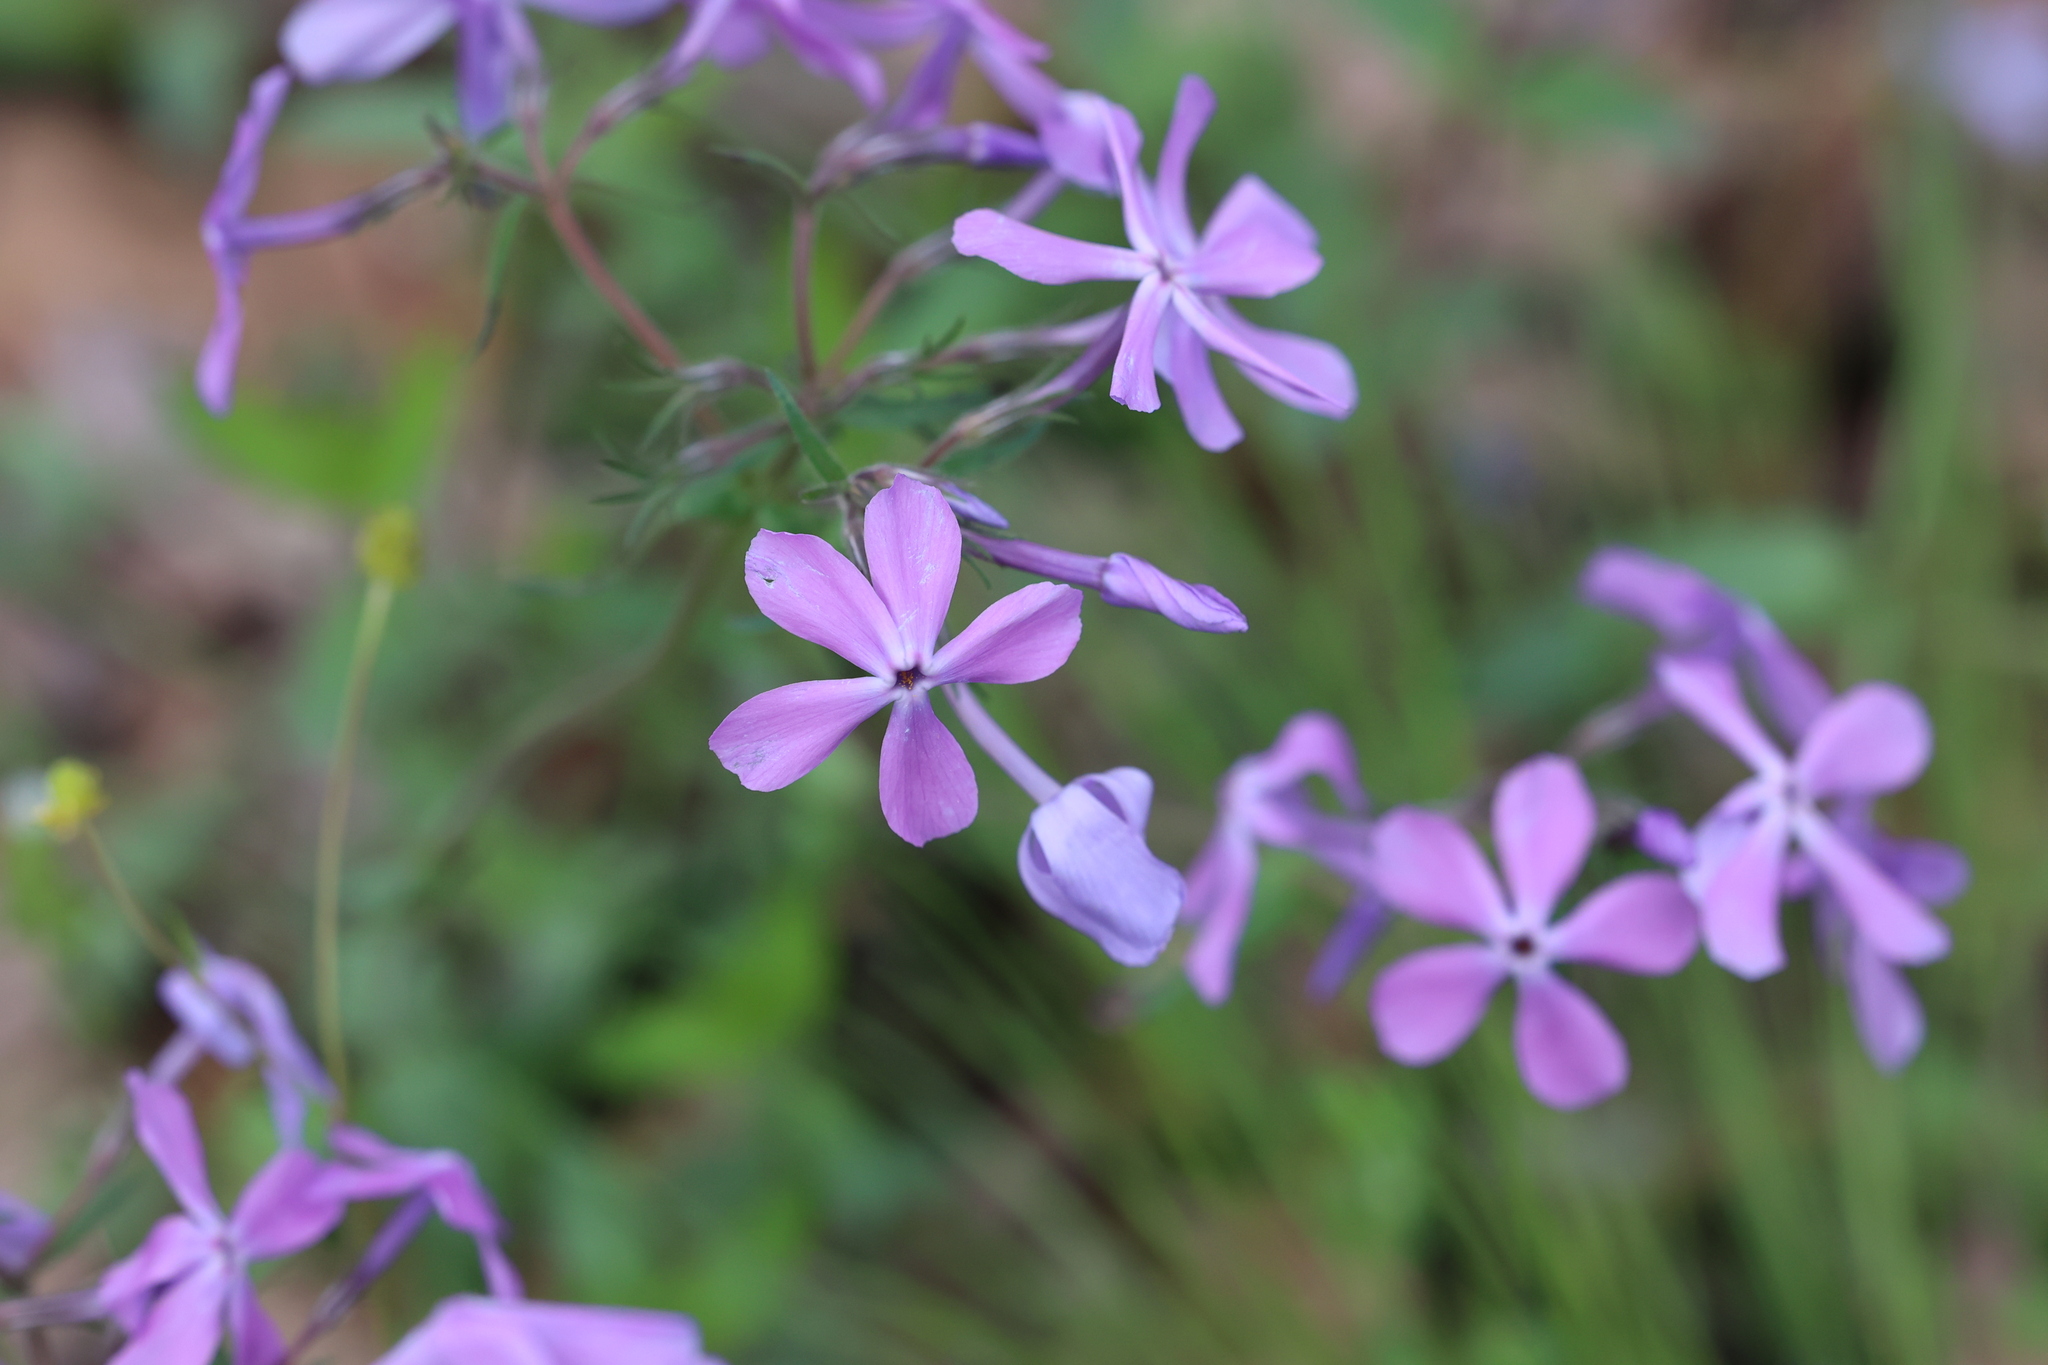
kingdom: Plantae
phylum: Tracheophyta
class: Magnoliopsida
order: Ericales
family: Polemoniaceae
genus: Phlox
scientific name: Phlox divaricata
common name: Blue phlox
